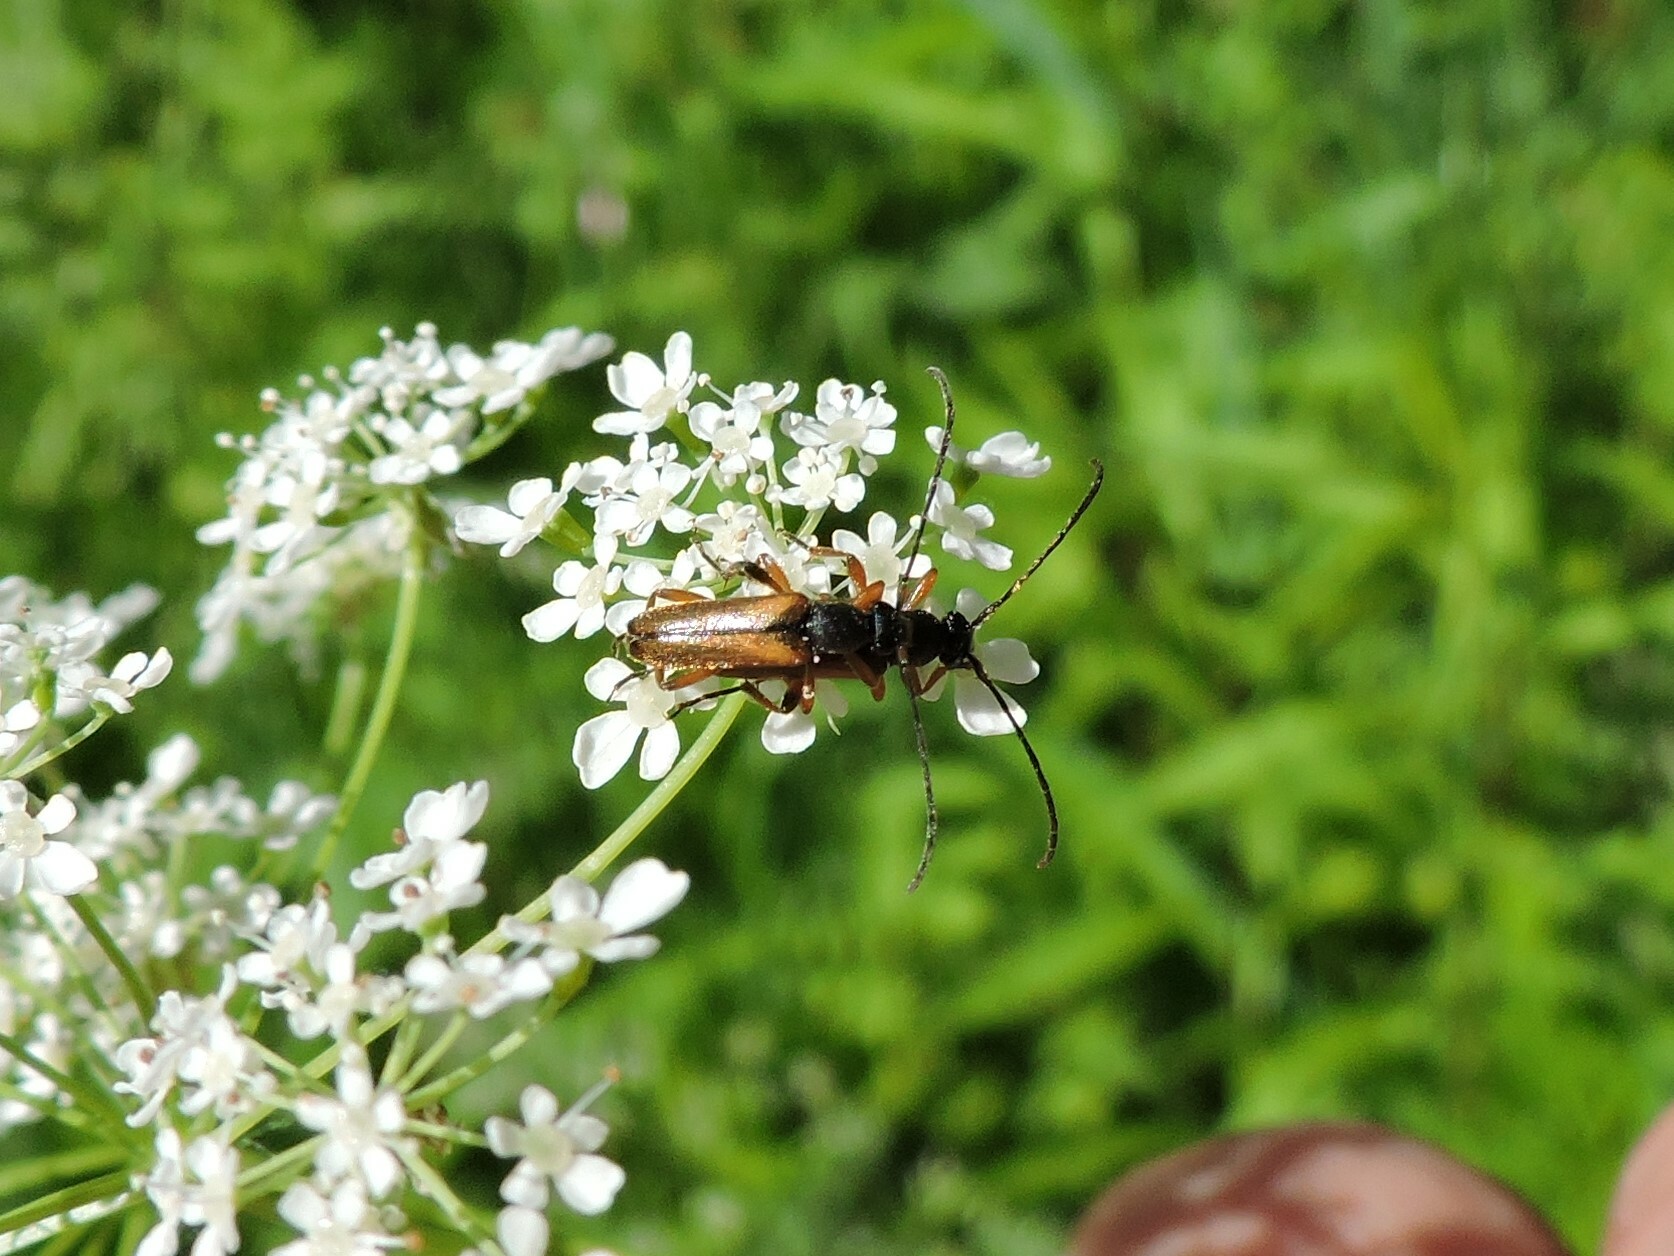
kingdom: Animalia
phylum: Arthropoda
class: Insecta
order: Coleoptera
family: Cerambycidae
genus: Alosterna
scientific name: Alosterna tabacicolor
